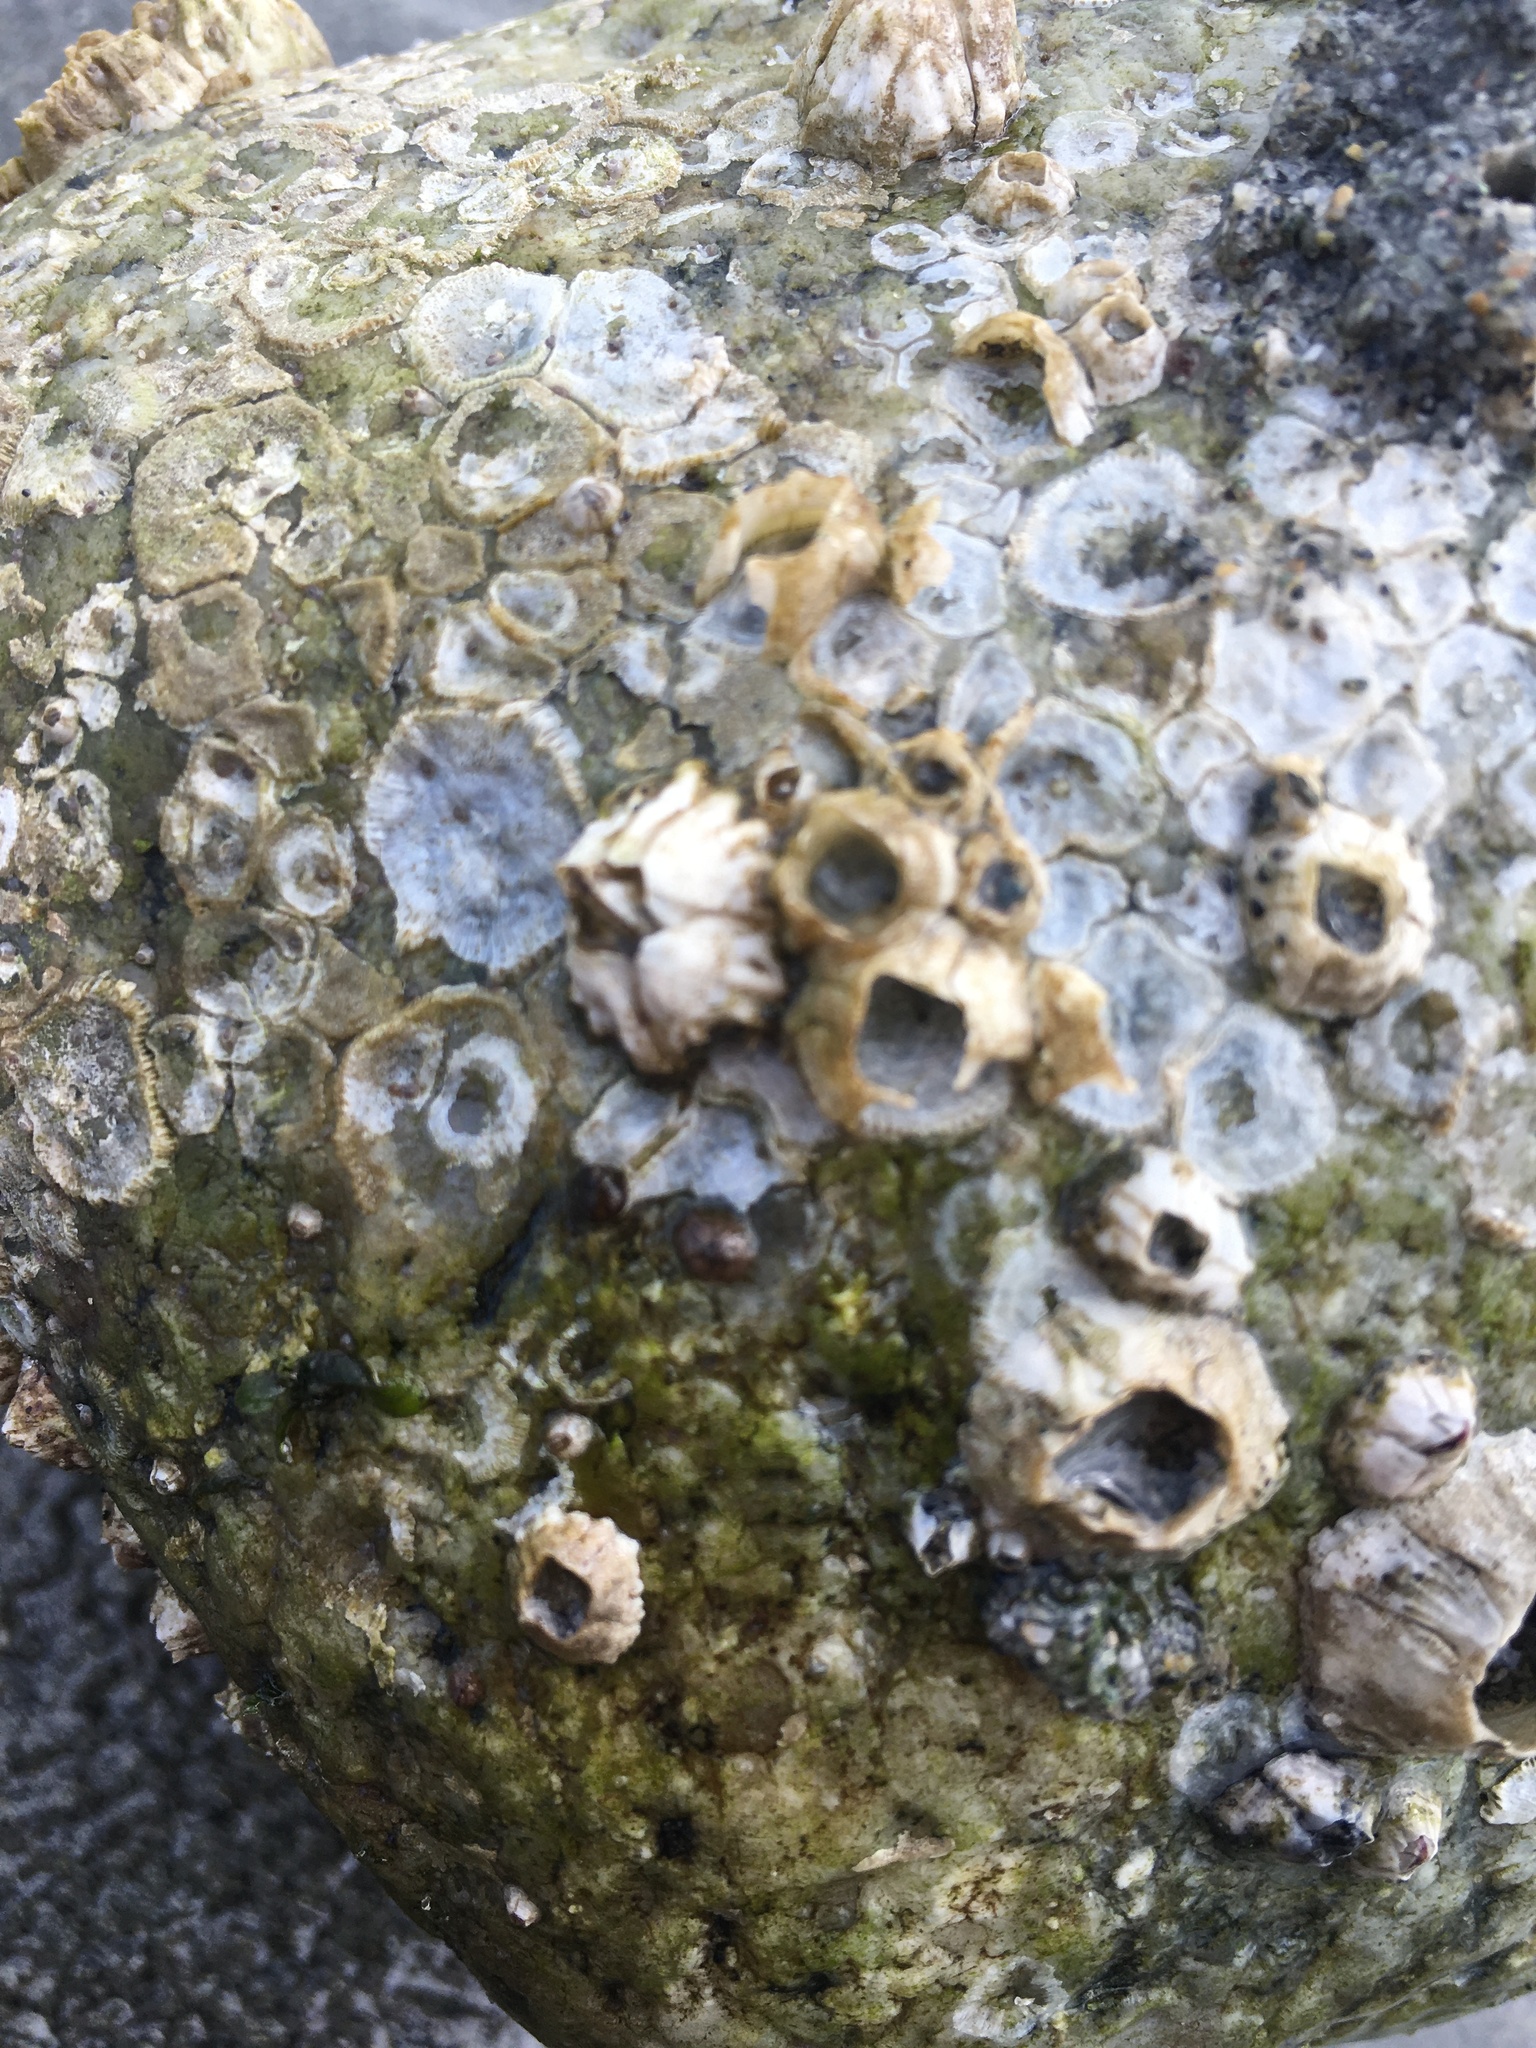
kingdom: Animalia
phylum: Arthropoda
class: Maxillopoda
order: Sessilia
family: Balanidae
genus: Balanus
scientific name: Balanus glandula
